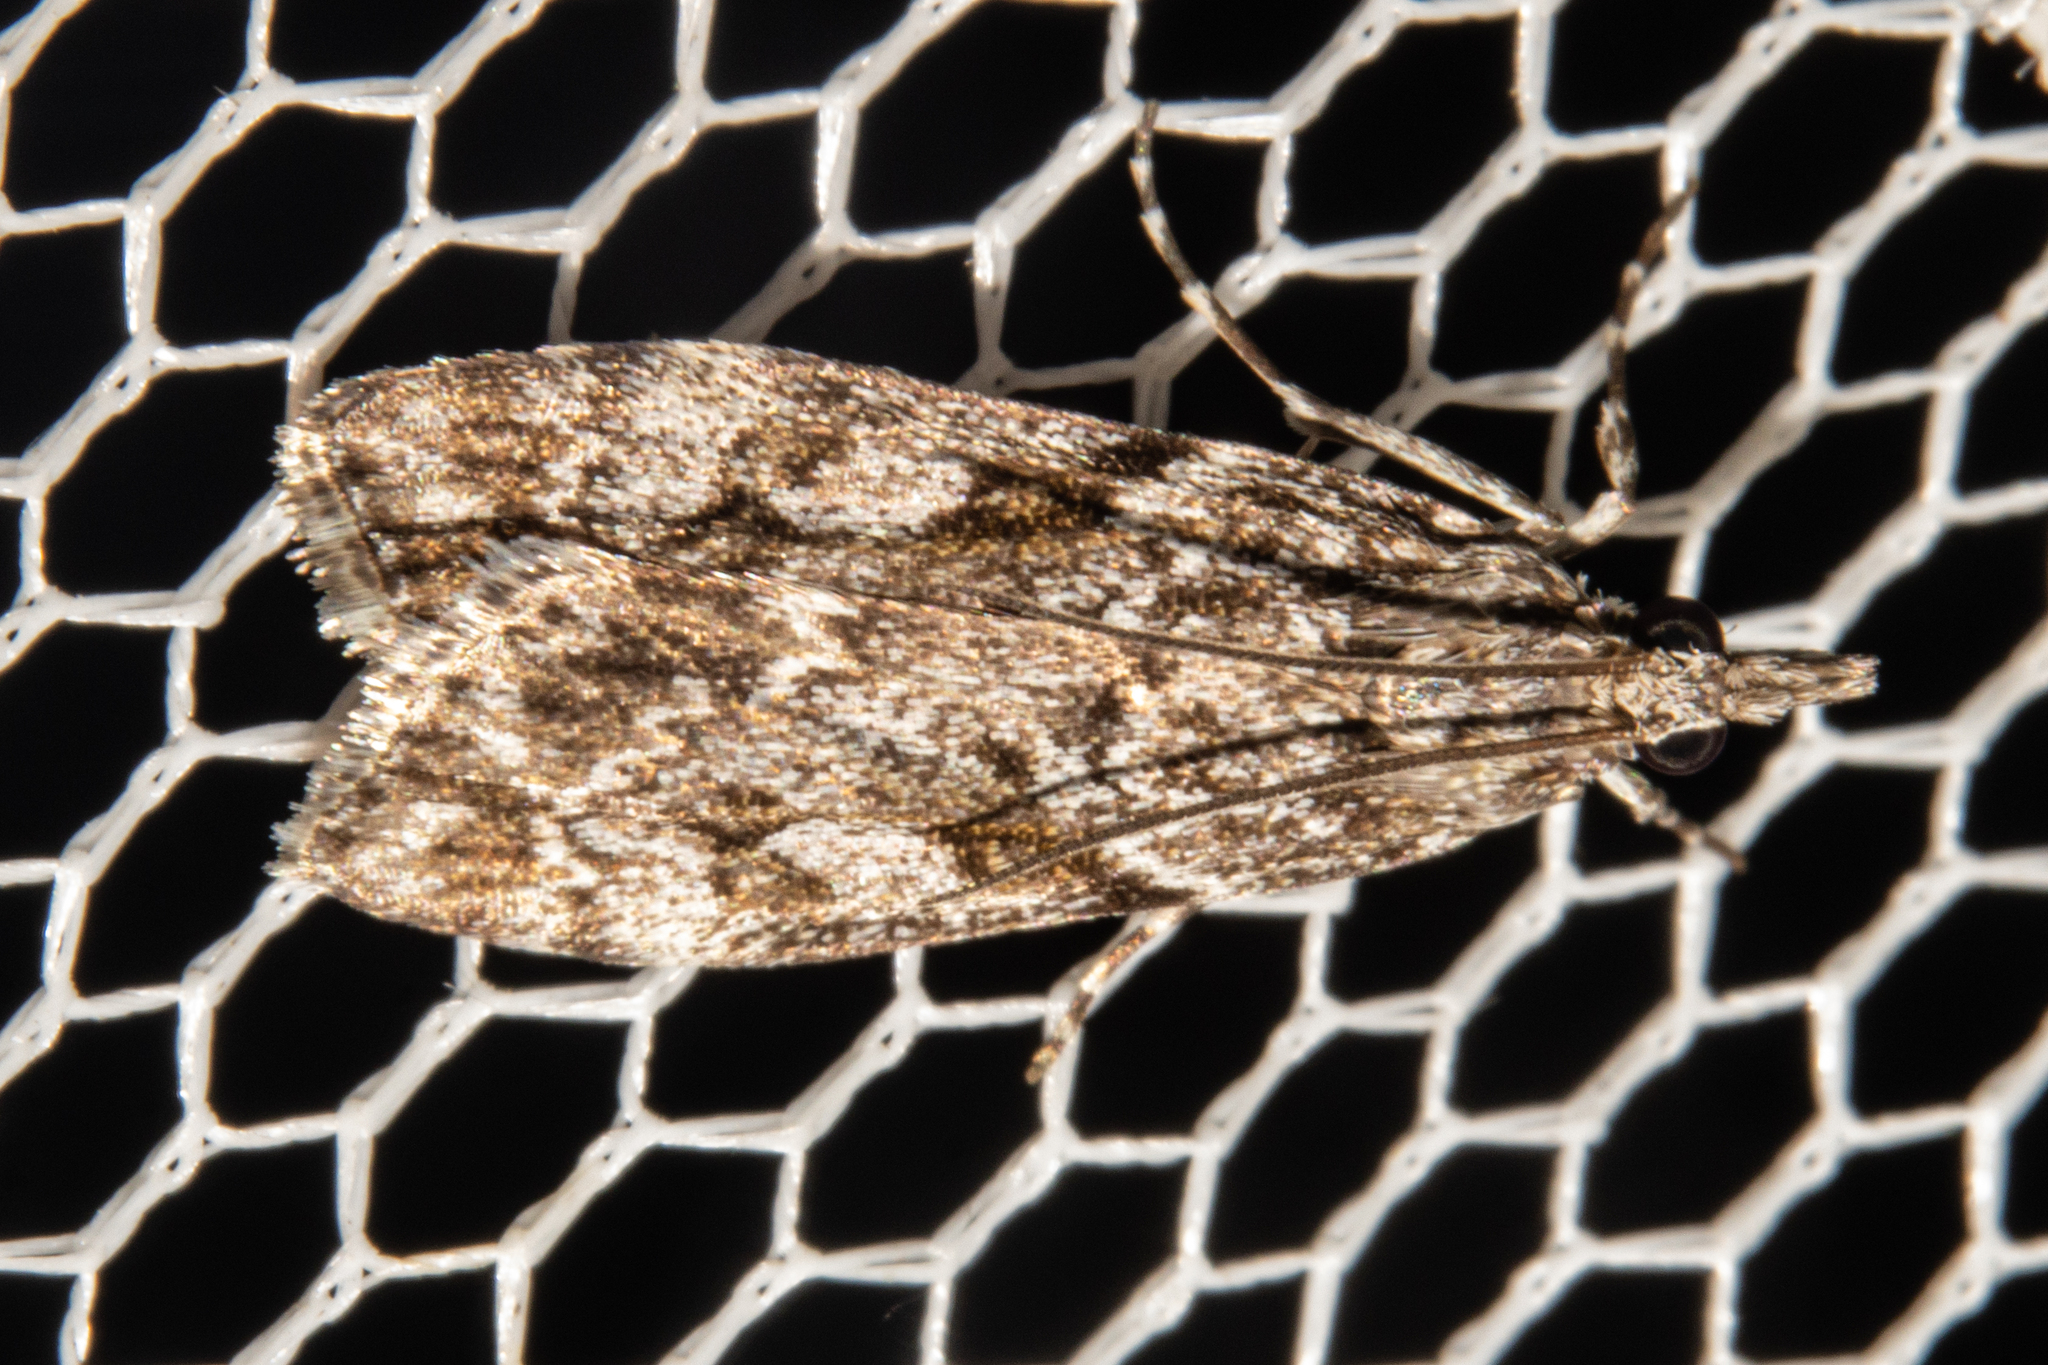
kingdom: Animalia
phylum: Arthropoda
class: Insecta
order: Lepidoptera
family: Crambidae
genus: Eudonia
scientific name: Eudonia cymatias
